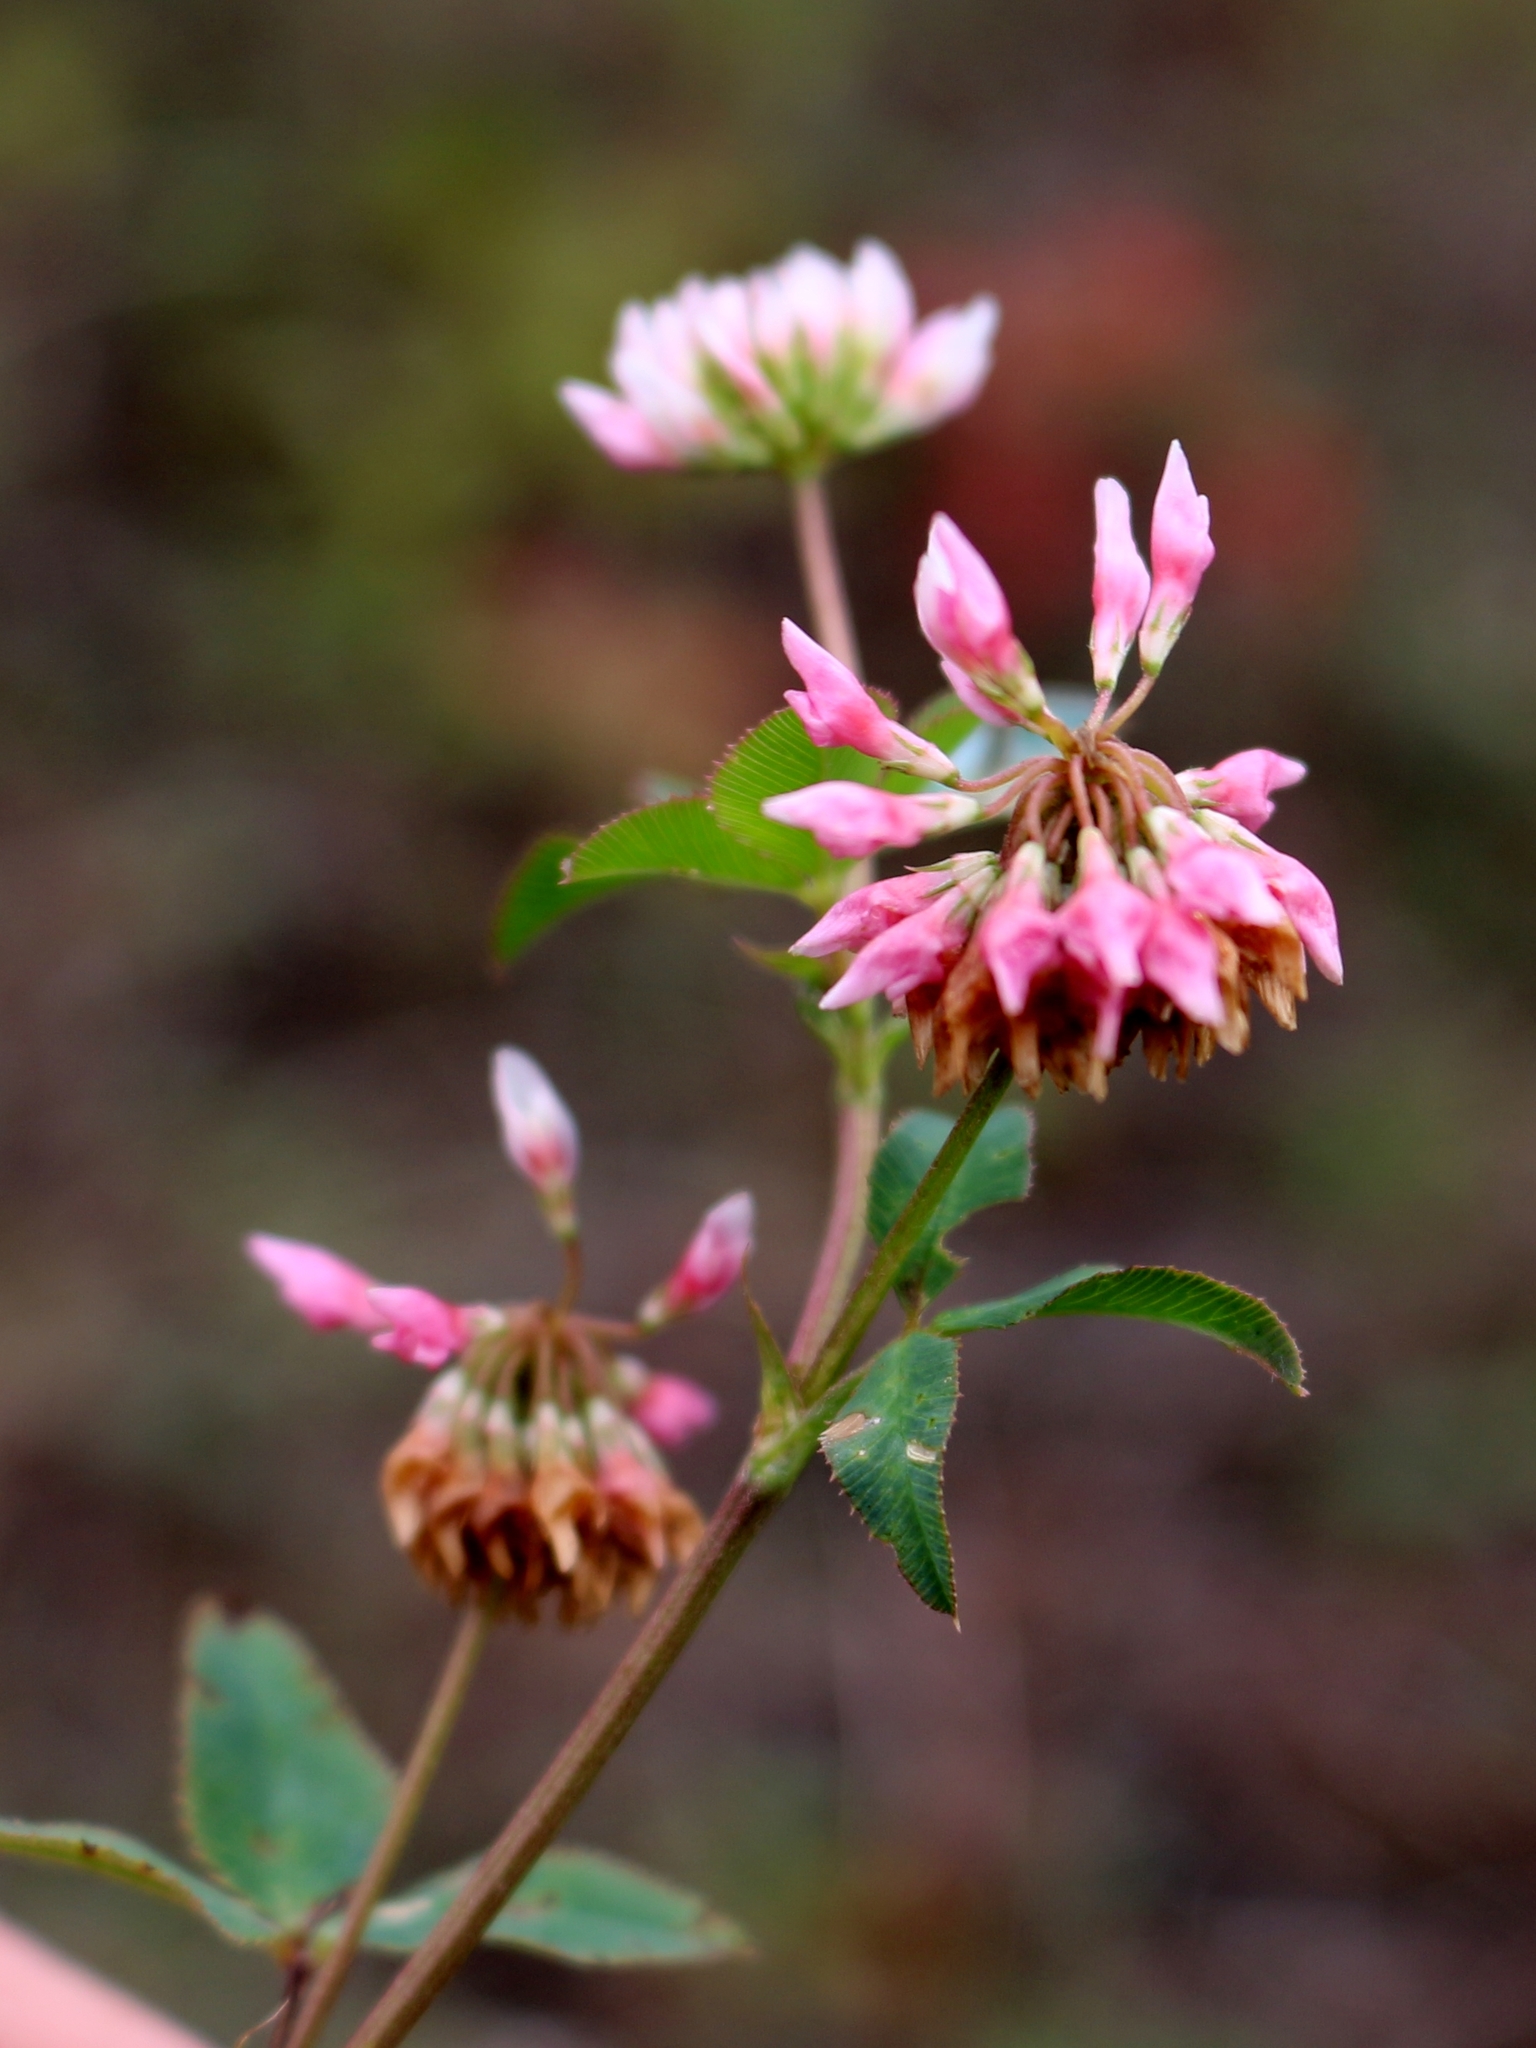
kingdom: Plantae
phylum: Tracheophyta
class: Magnoliopsida
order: Fabales
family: Fabaceae
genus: Trifolium
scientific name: Trifolium hybridum
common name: Alsike clover
